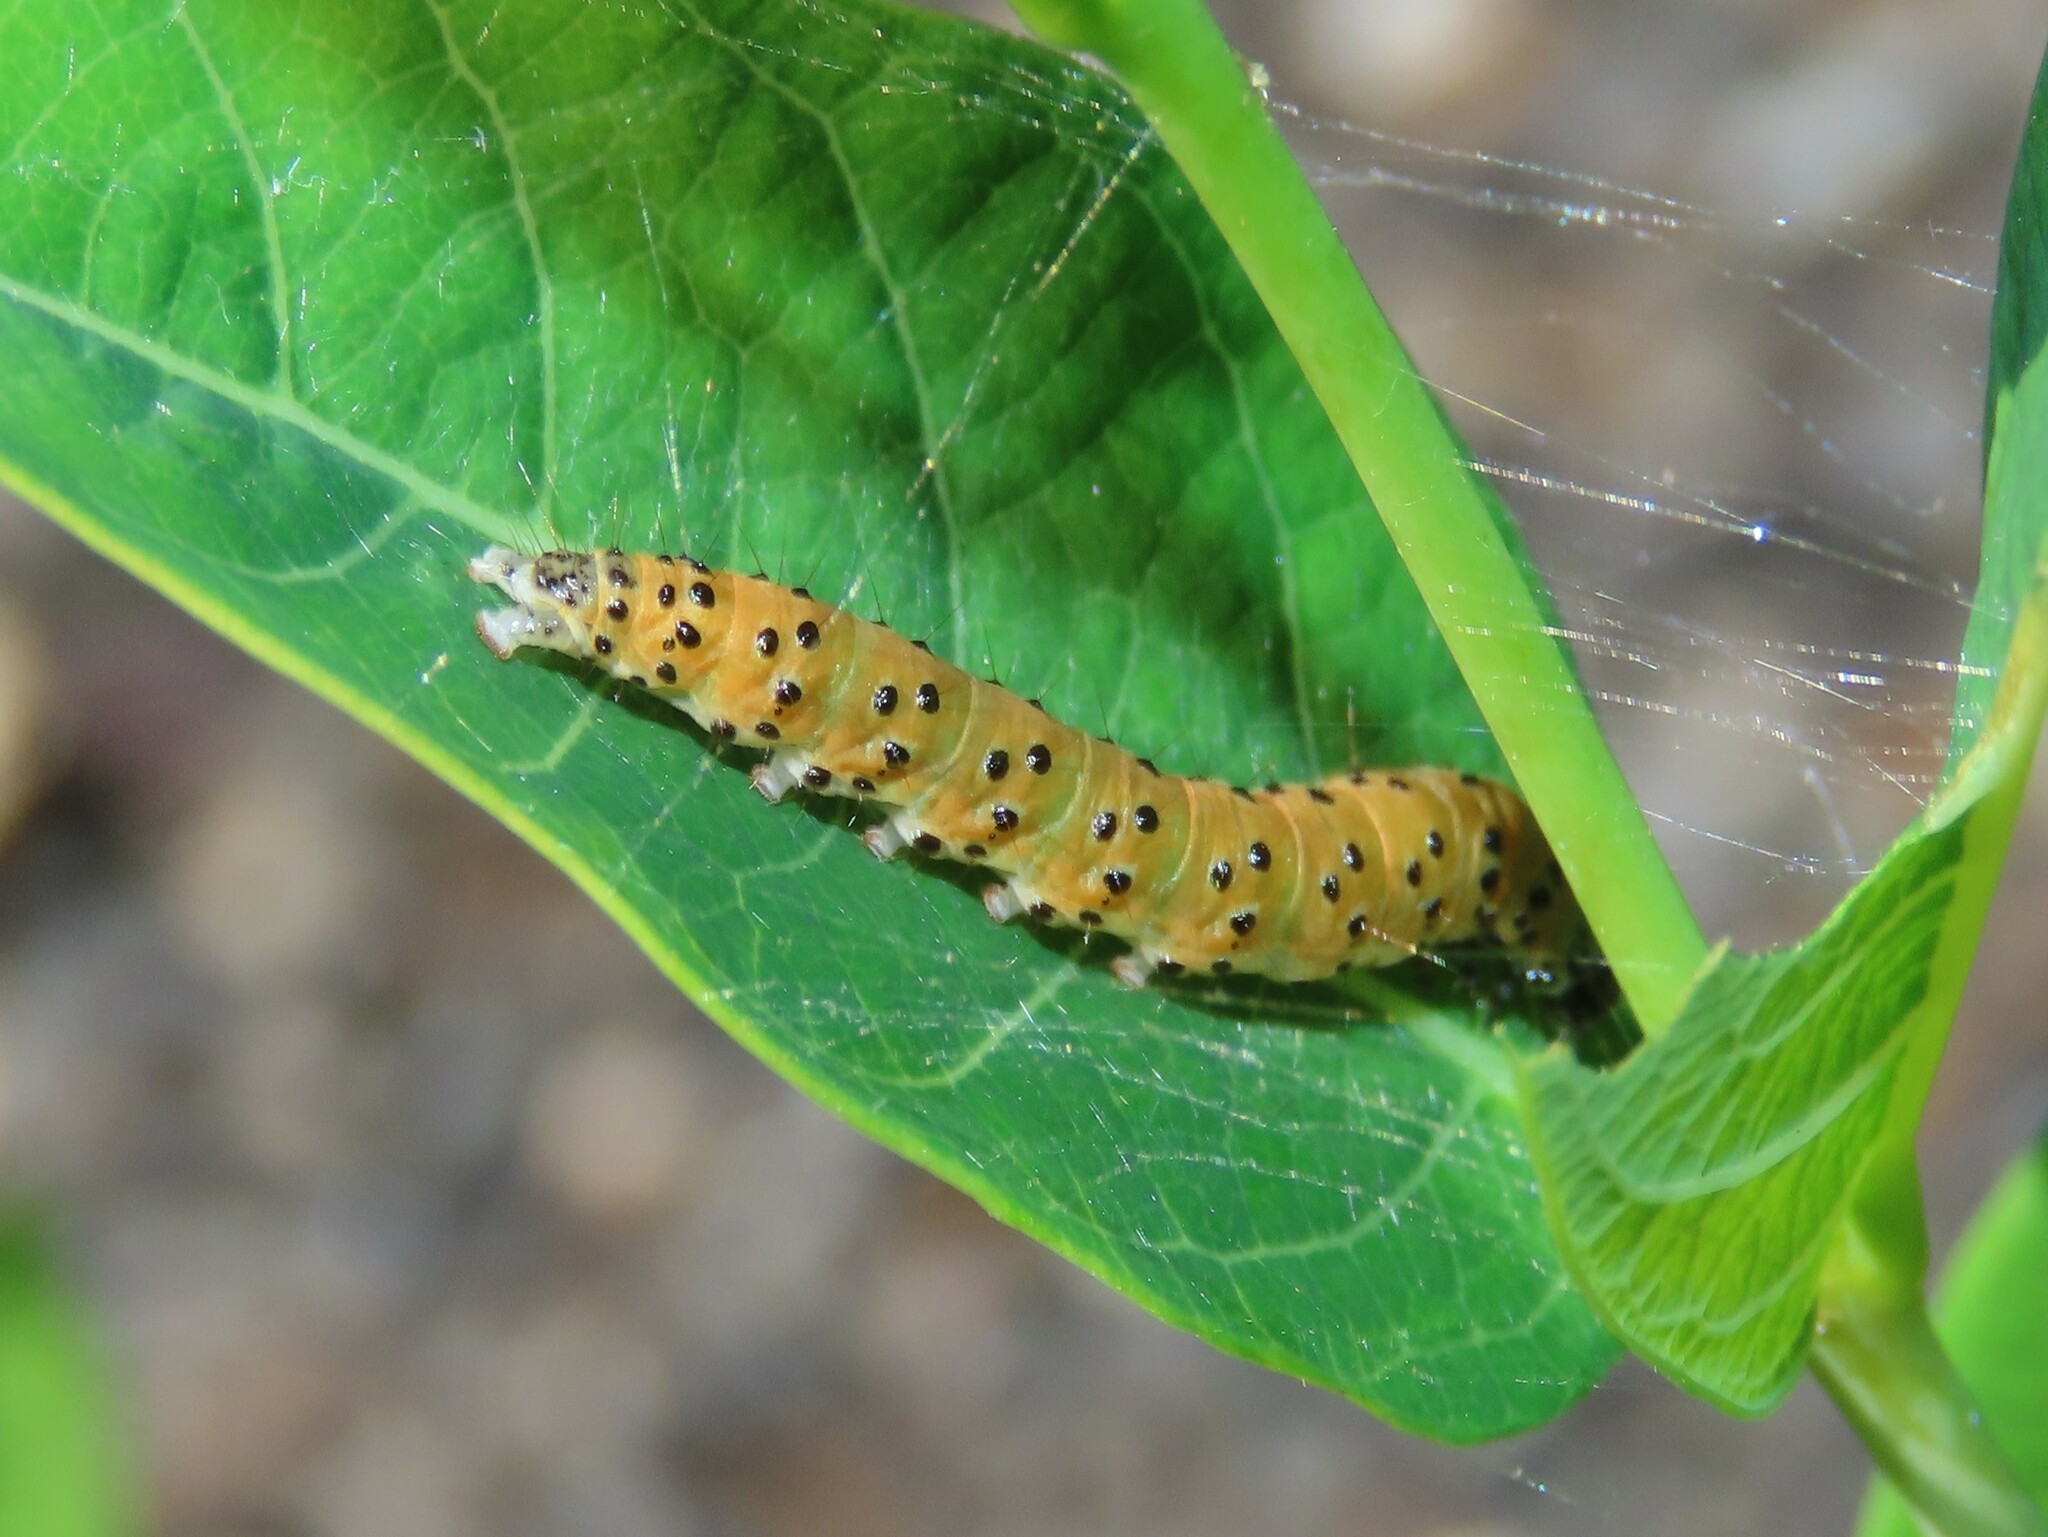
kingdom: Animalia
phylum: Arthropoda
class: Insecta
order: Lepidoptera
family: Crambidae
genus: Saucrobotys
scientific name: Saucrobotys futilalis
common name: Dogbane saucrobotys moth
